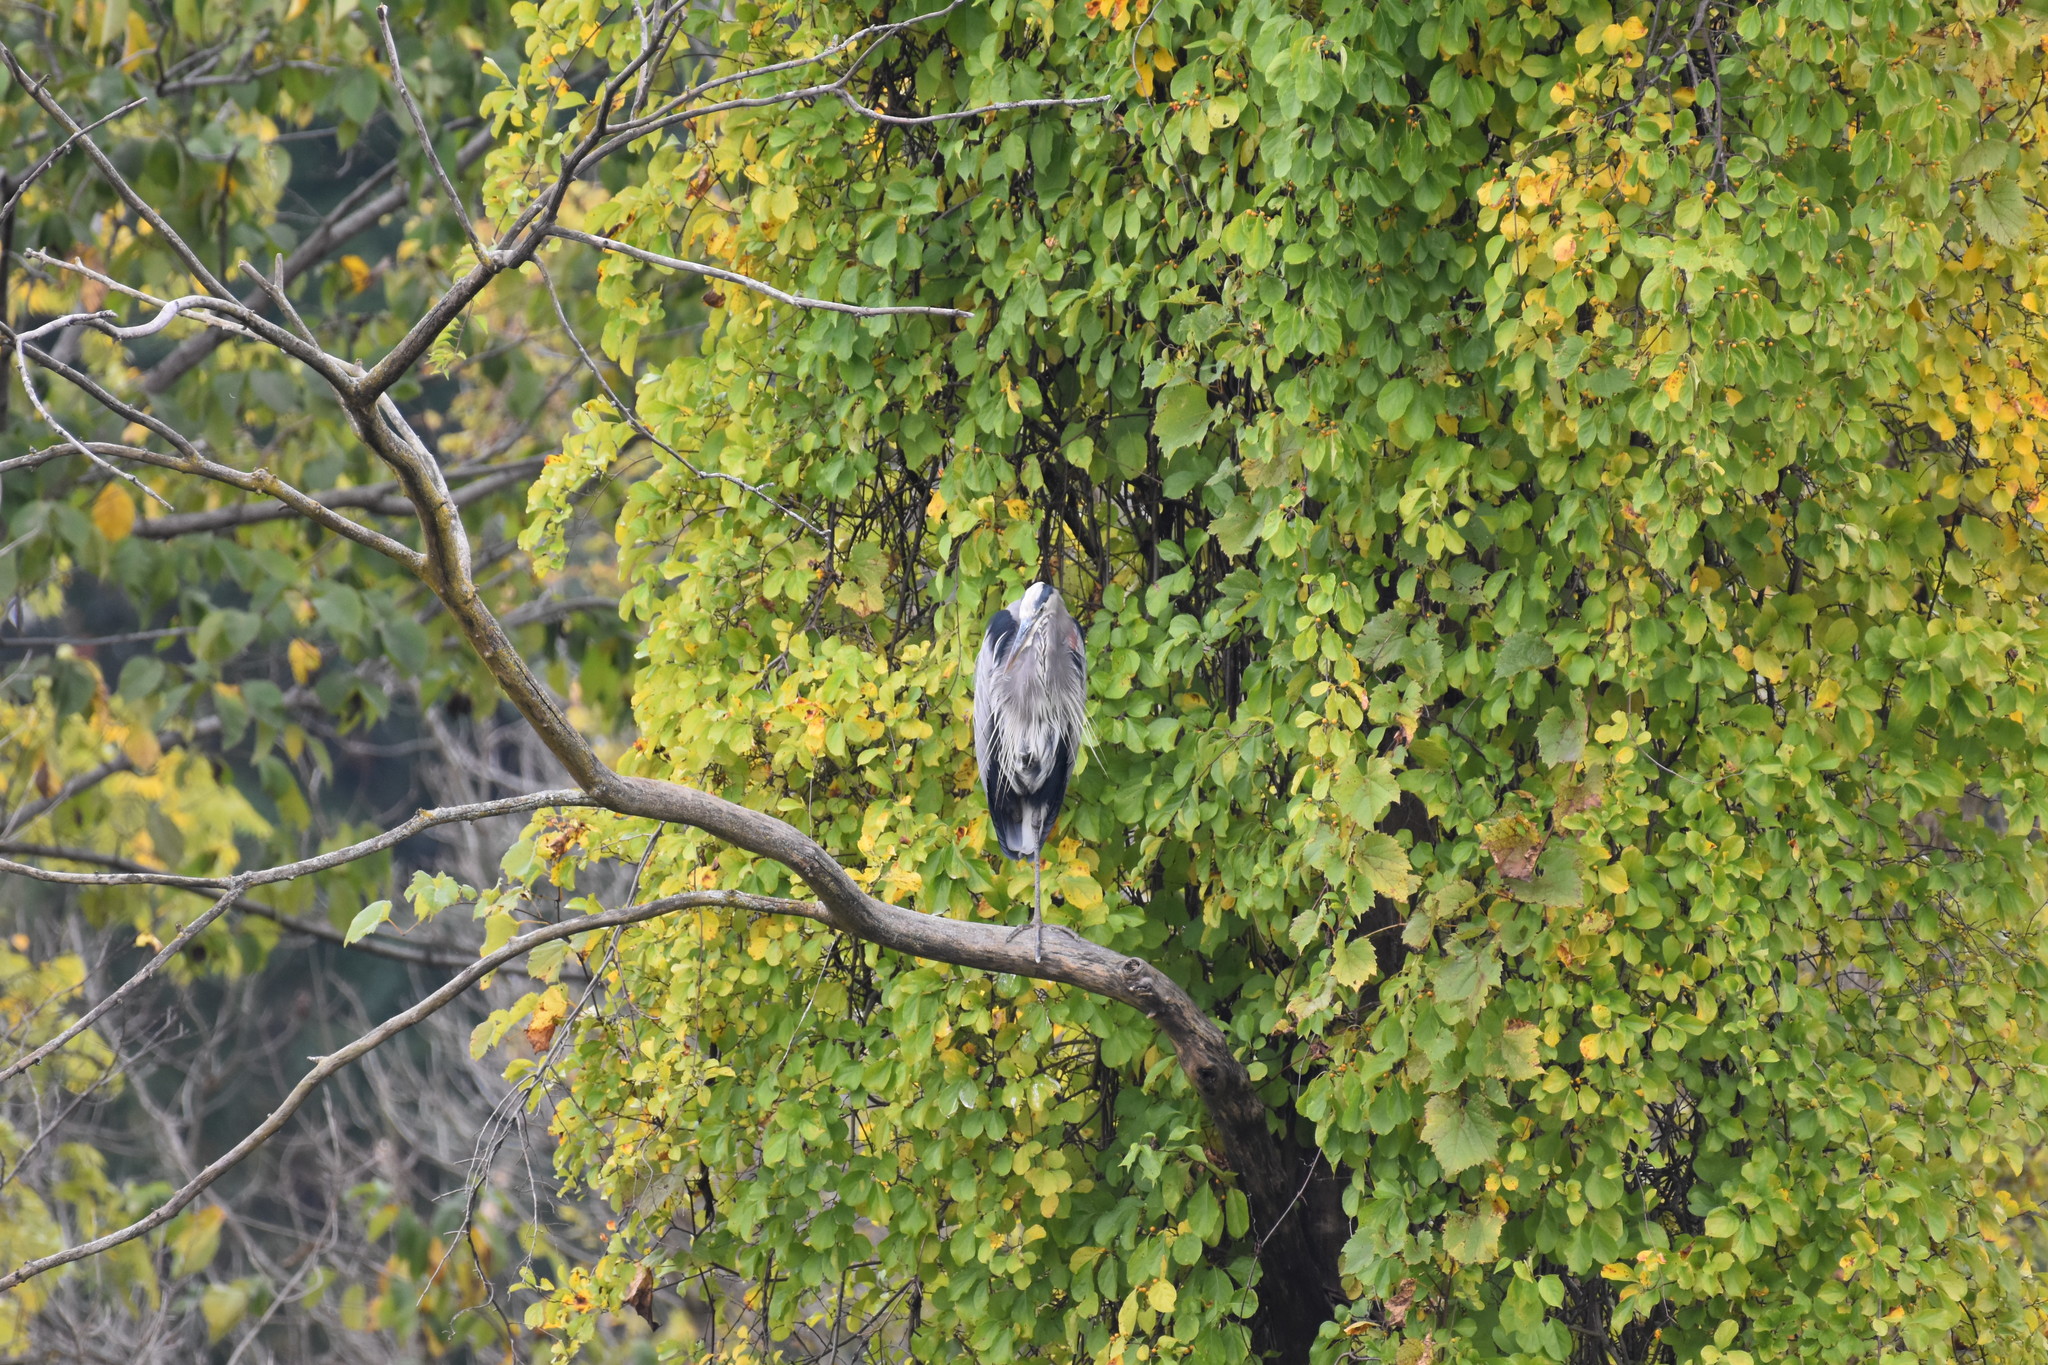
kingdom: Animalia
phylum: Chordata
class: Aves
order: Pelecaniformes
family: Ardeidae
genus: Ardea
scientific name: Ardea herodias
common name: Great blue heron
